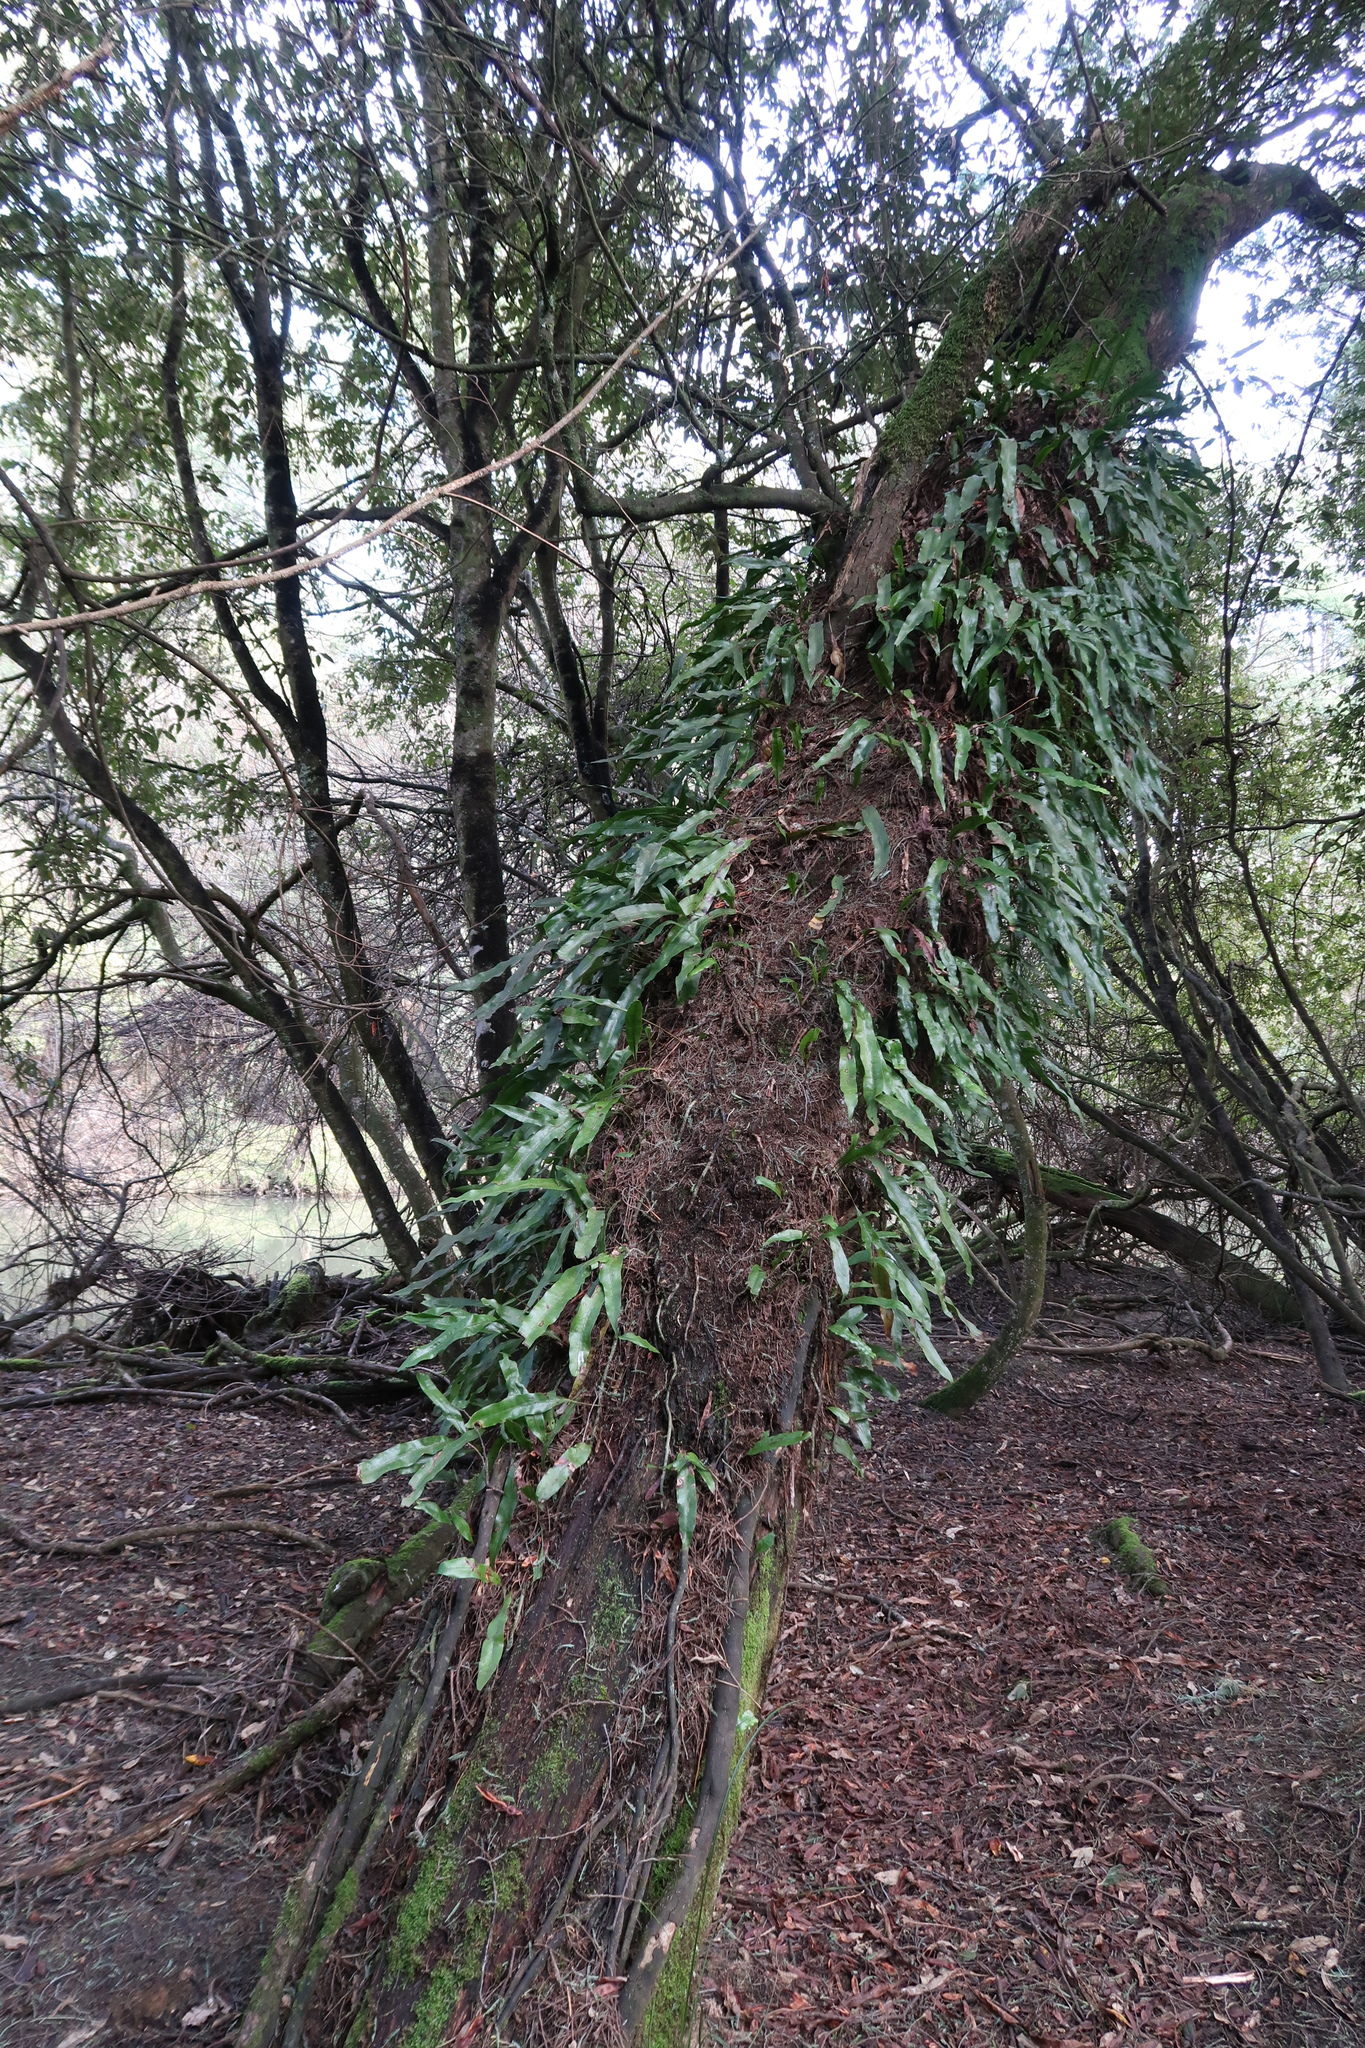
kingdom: Plantae
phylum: Tracheophyta
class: Polypodiopsida
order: Polypodiales
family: Polypodiaceae
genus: Lecanopteris
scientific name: Lecanopteris pustulata
